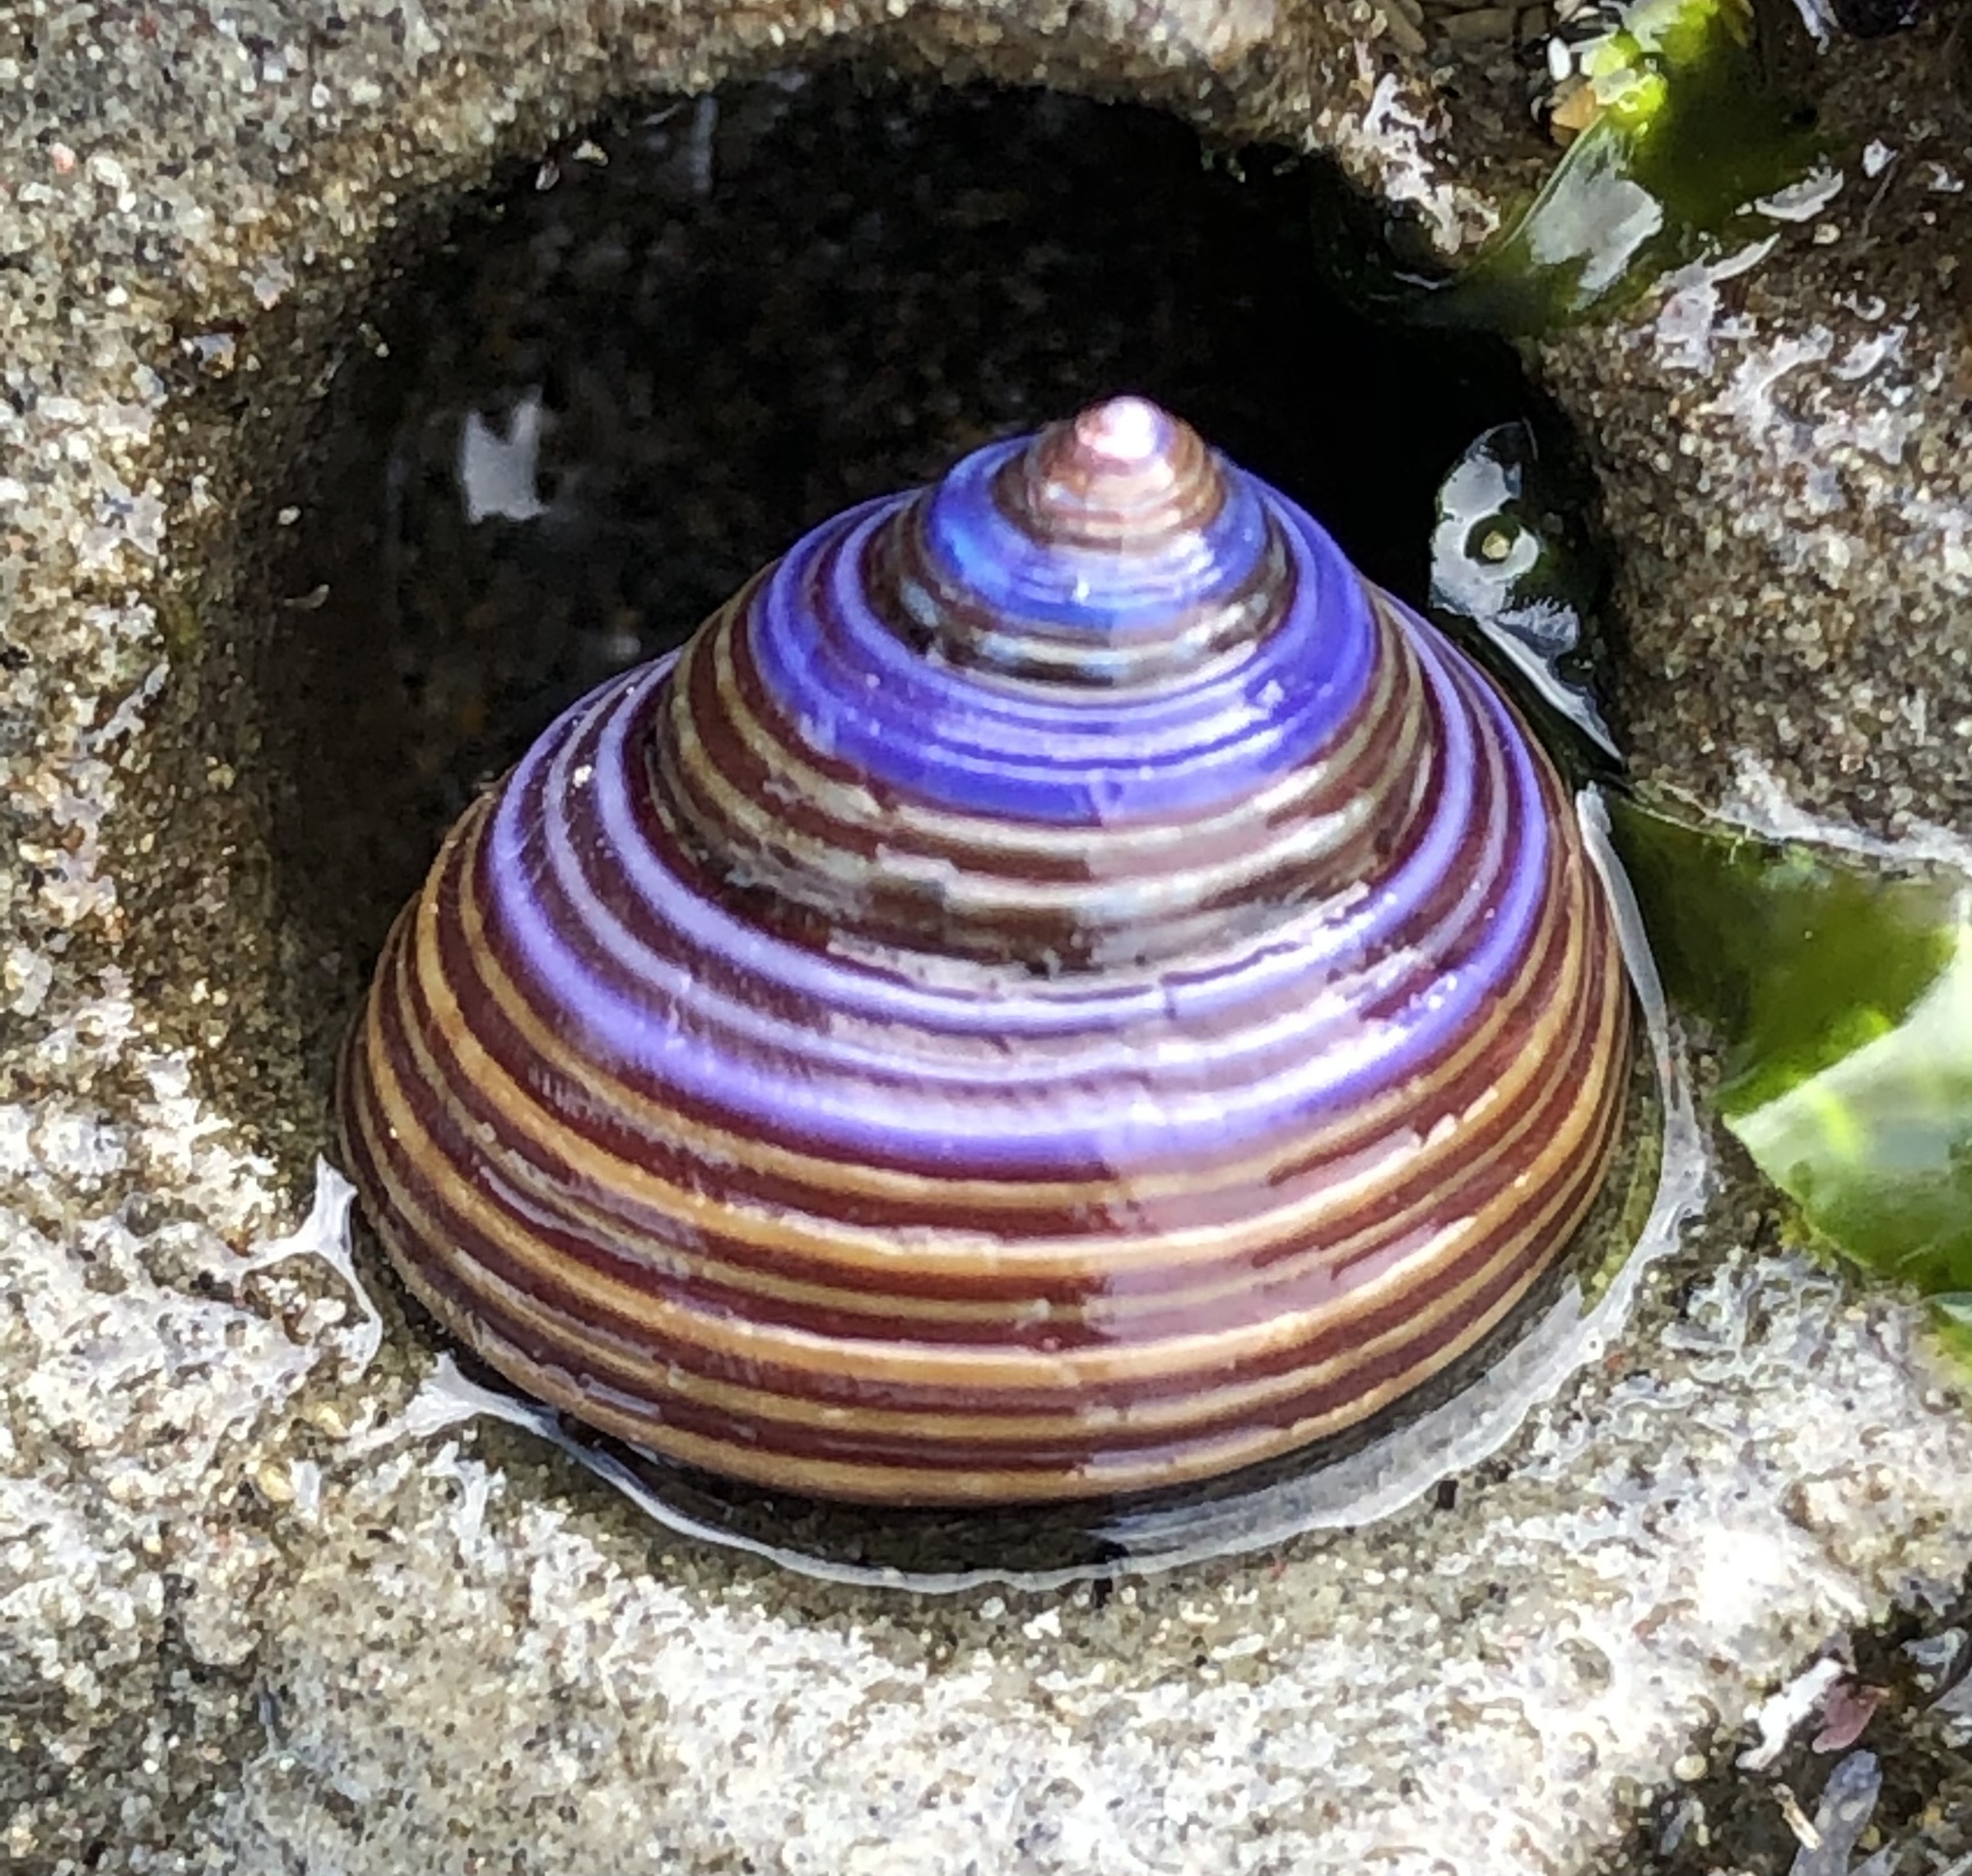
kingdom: Animalia
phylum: Mollusca
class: Gastropoda
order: Trochida
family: Calliostomatidae
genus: Calliostoma
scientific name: Calliostoma ligatum
